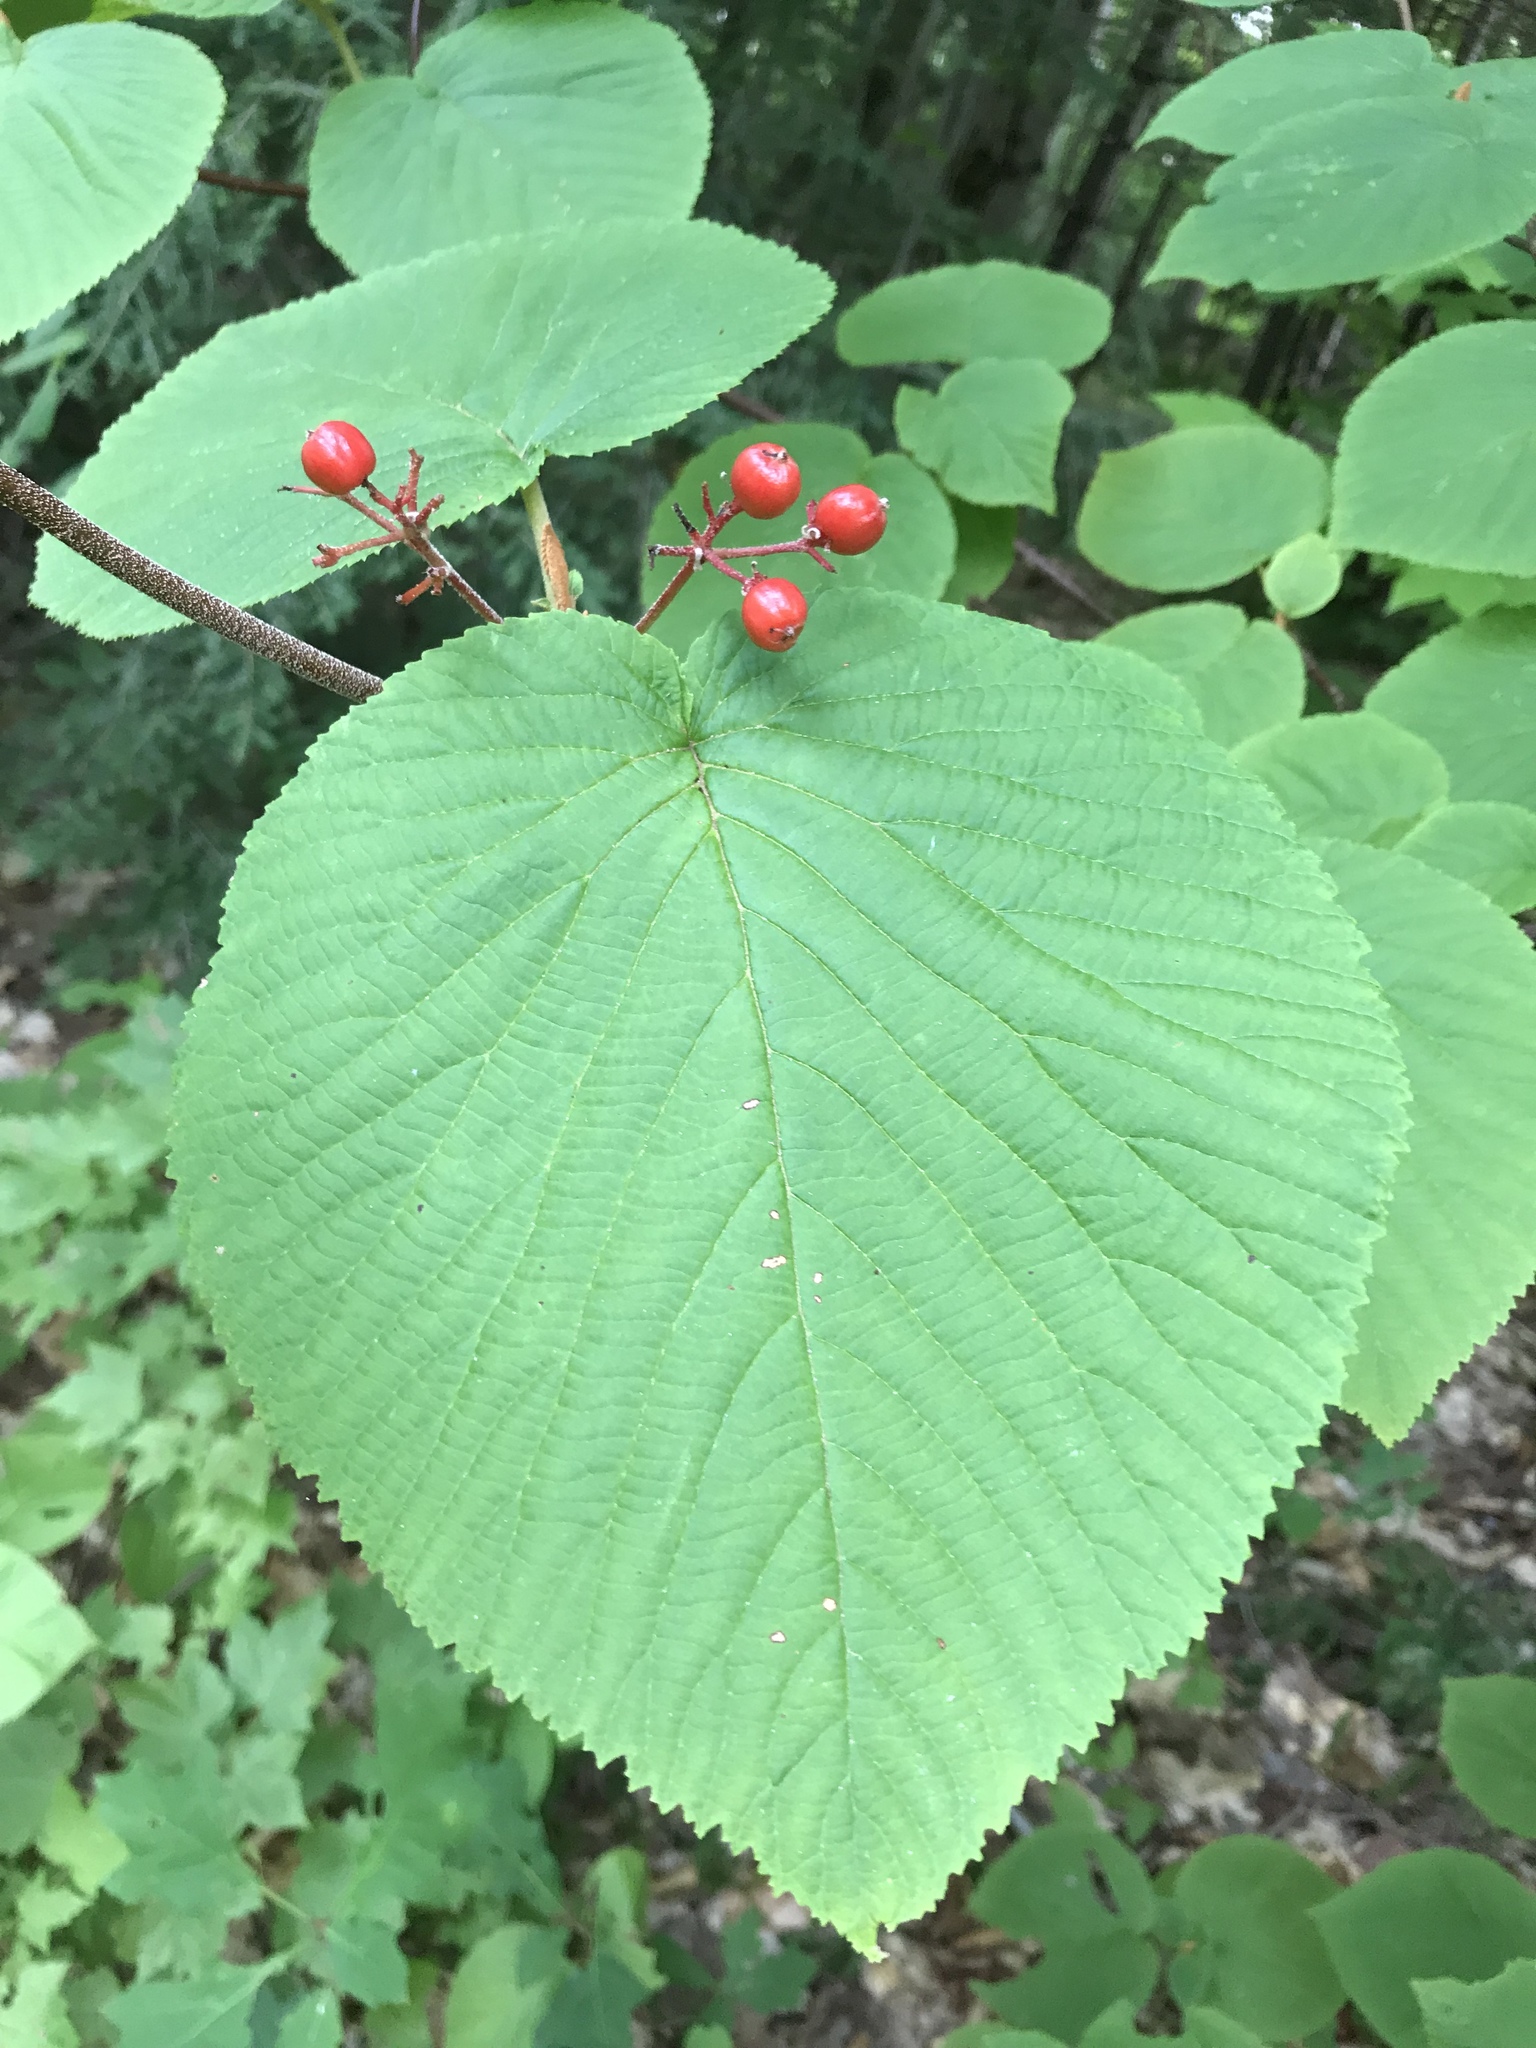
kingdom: Plantae
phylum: Tracheophyta
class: Magnoliopsida
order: Dipsacales
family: Viburnaceae
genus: Viburnum
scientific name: Viburnum lantanoides
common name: Hobblebush
